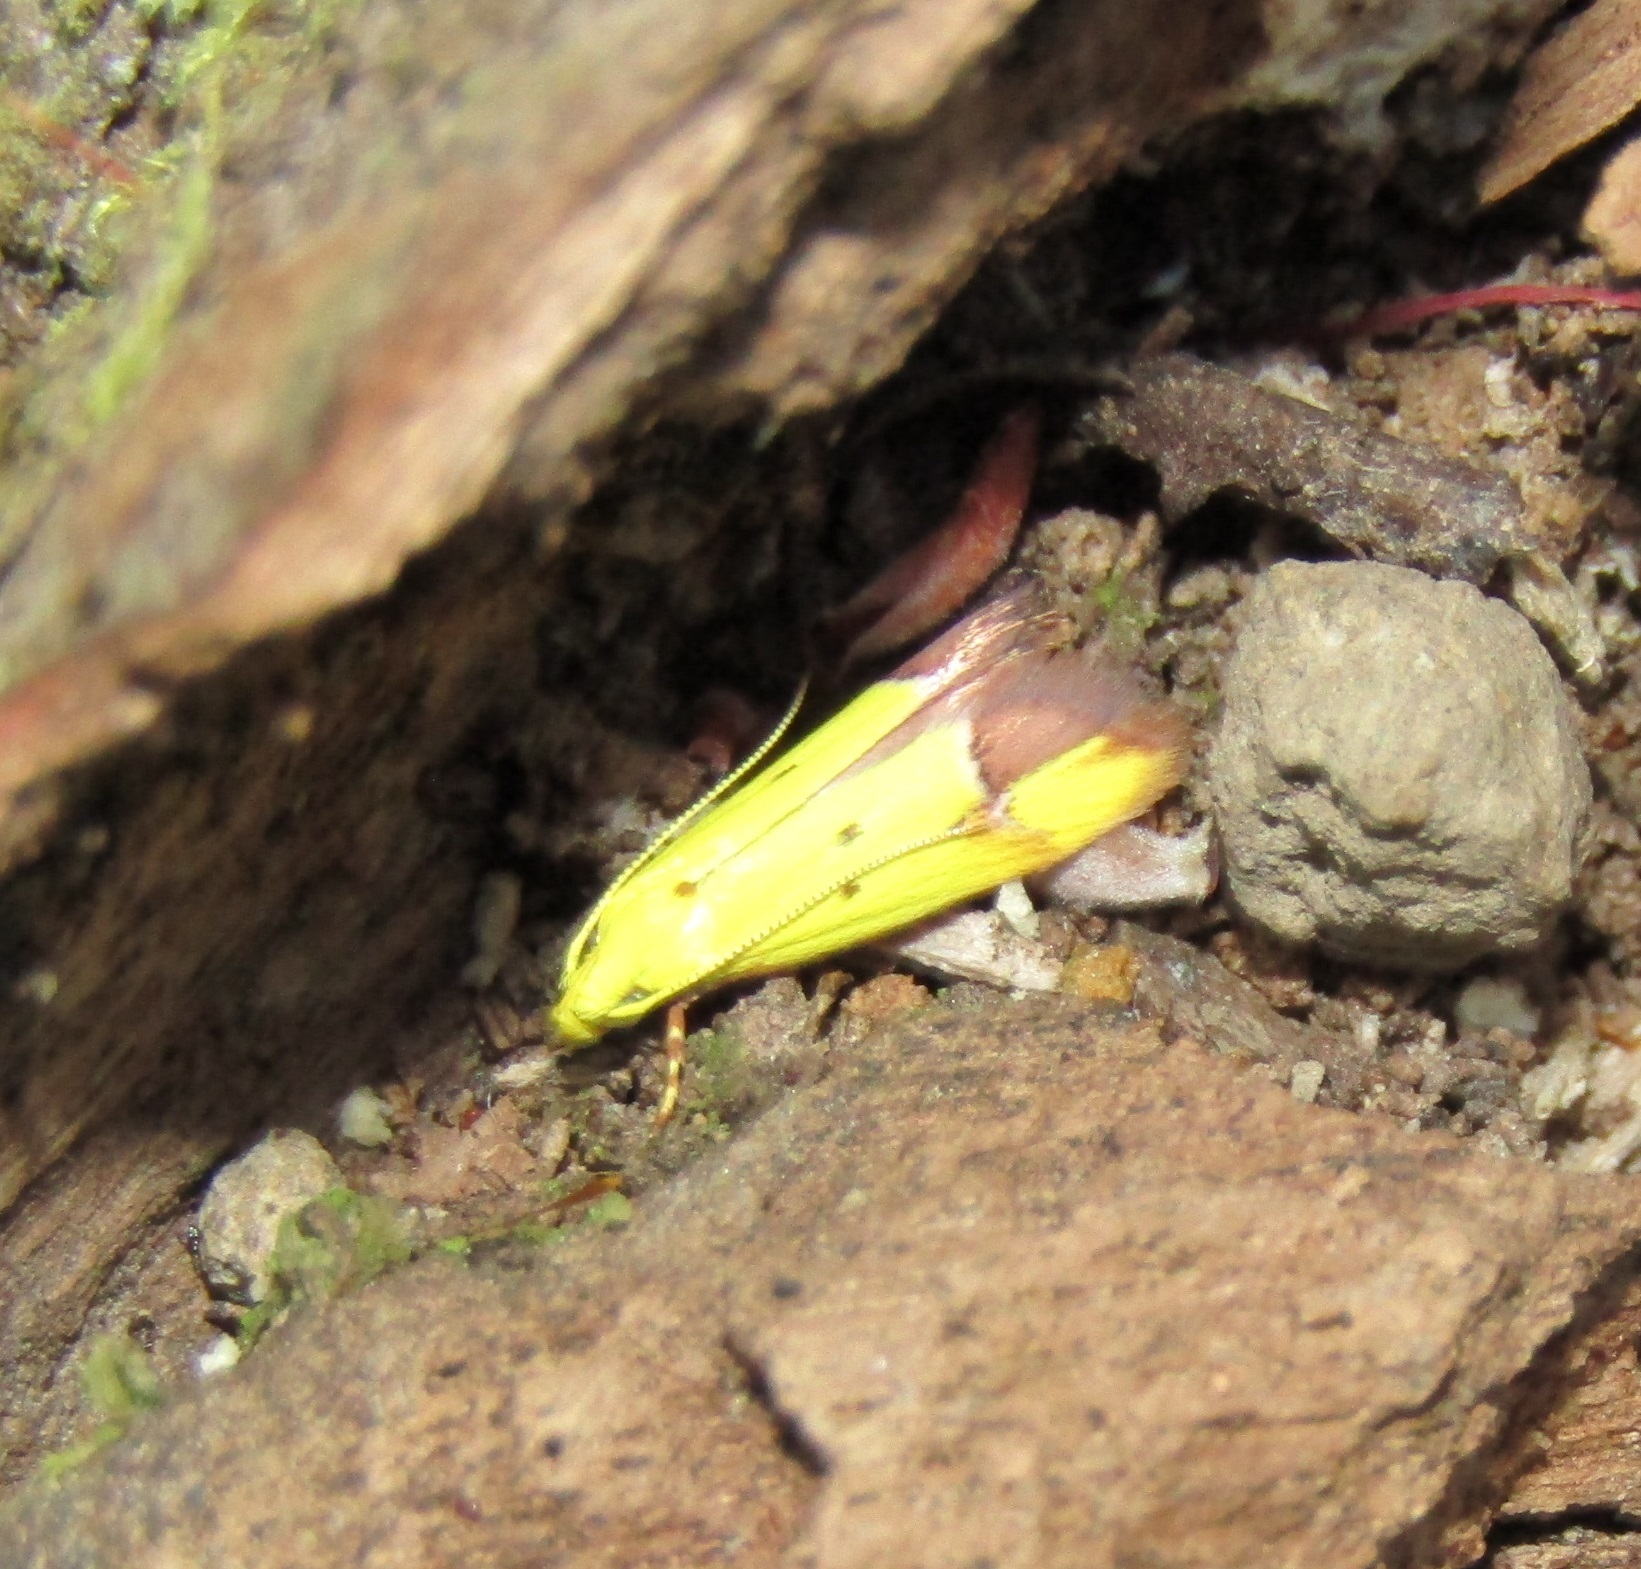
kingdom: Animalia
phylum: Arthropoda
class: Insecta
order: Lepidoptera
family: Oecophoridae
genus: Gymnobathra
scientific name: Gymnobathra flavidella
